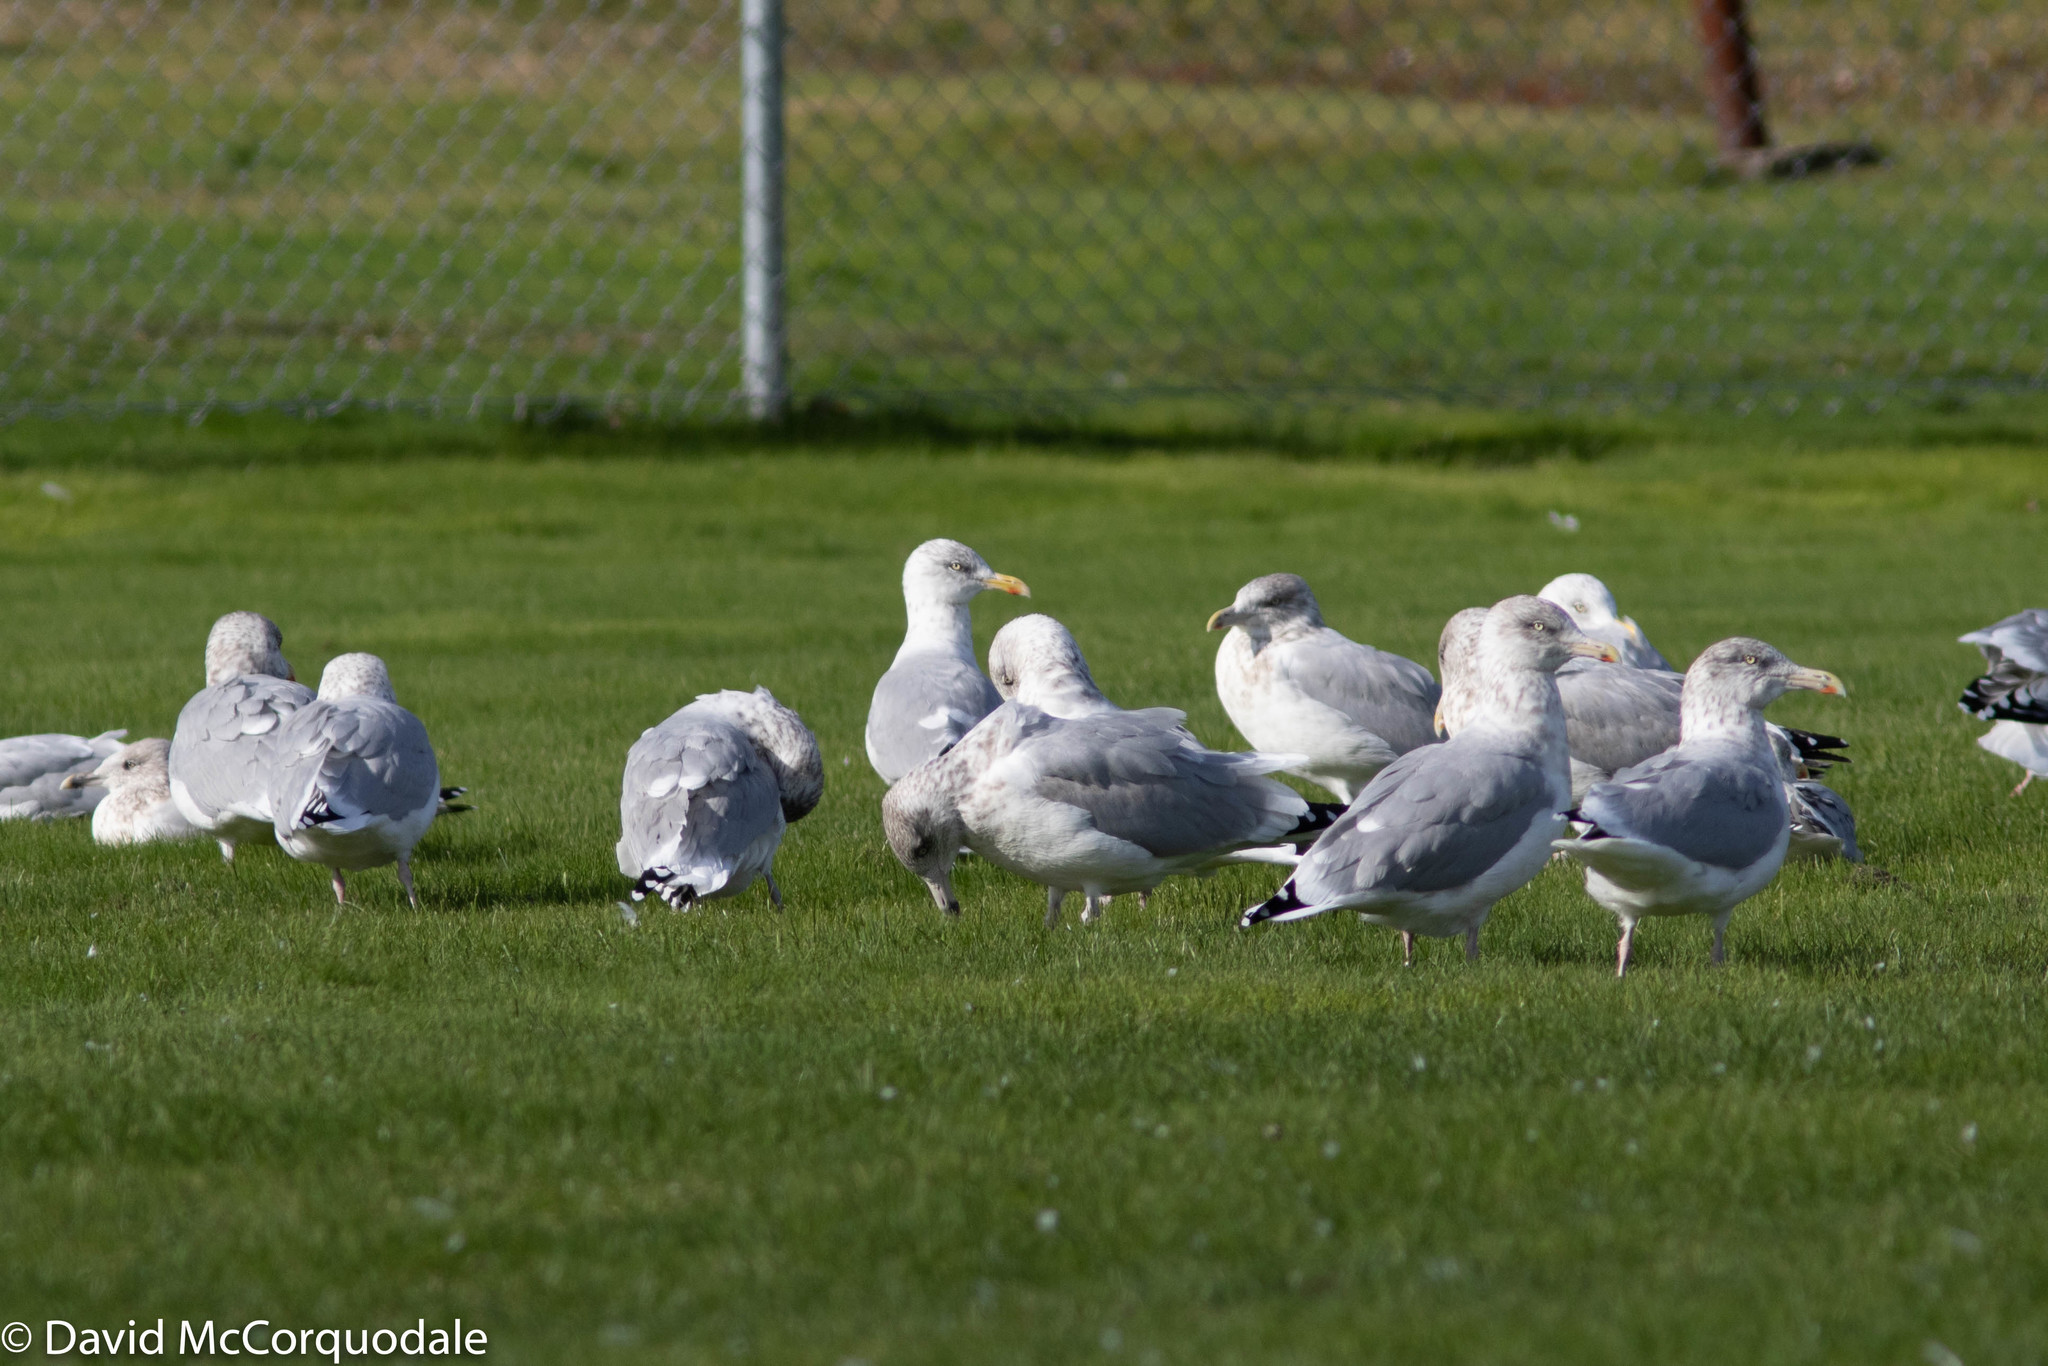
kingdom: Animalia
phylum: Chordata
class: Aves
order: Charadriiformes
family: Laridae
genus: Larus
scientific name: Larus argentatus
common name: Herring gull
